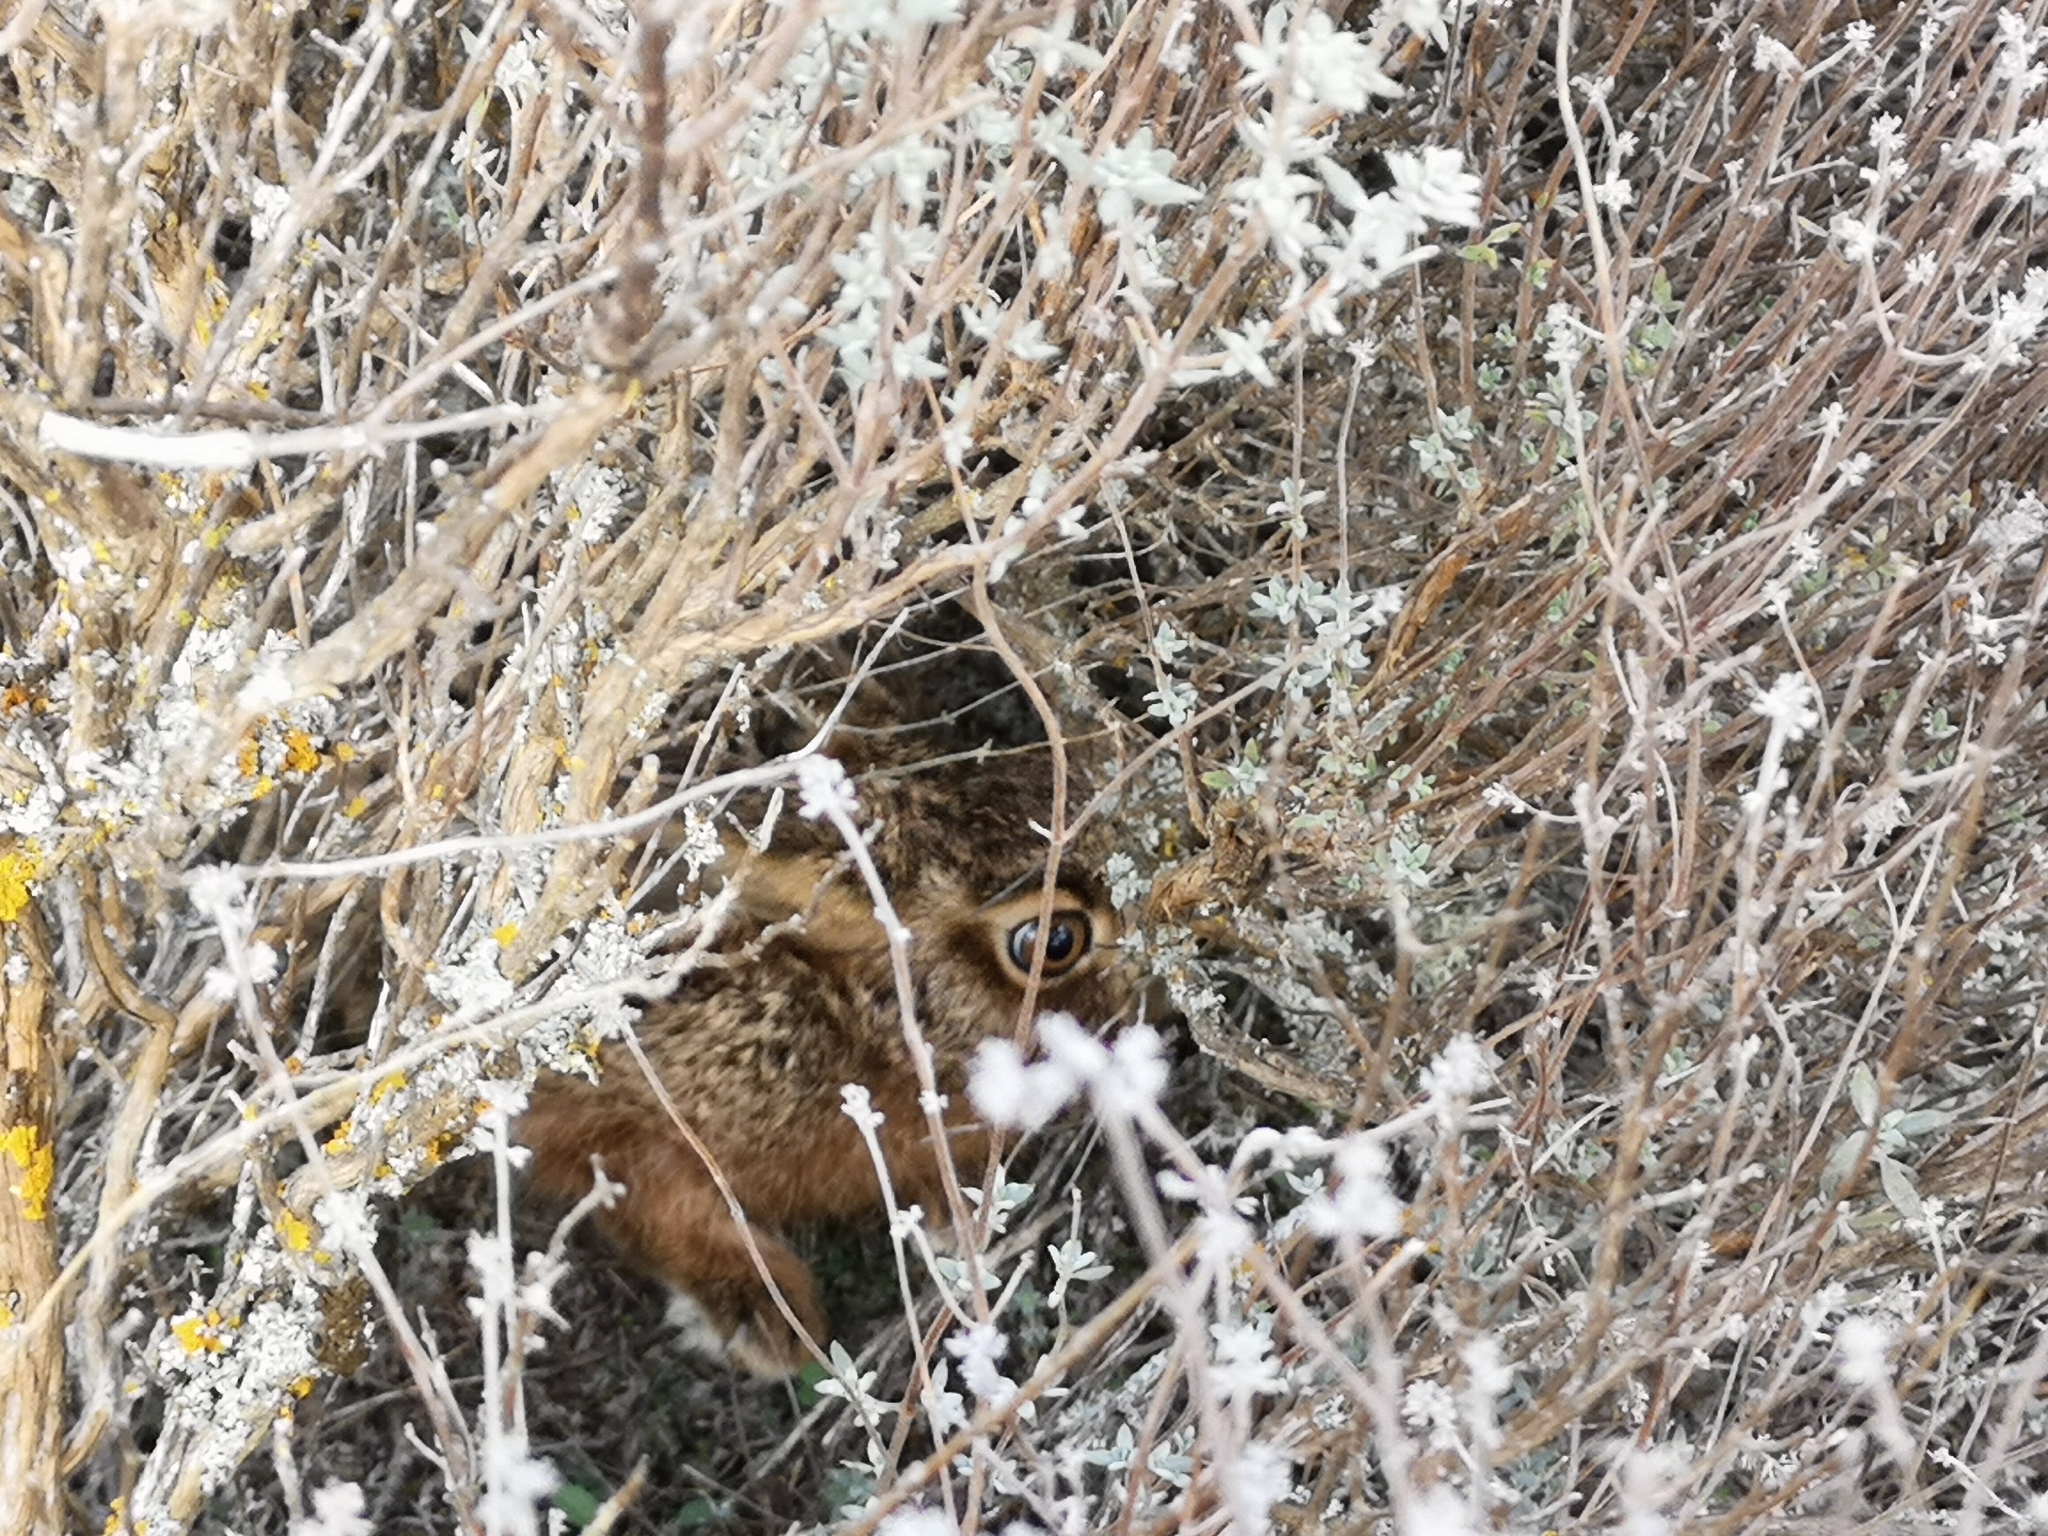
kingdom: Animalia
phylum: Chordata
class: Mammalia
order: Lagomorpha
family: Leporidae
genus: Lepus
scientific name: Lepus granatensis
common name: Granada hare
